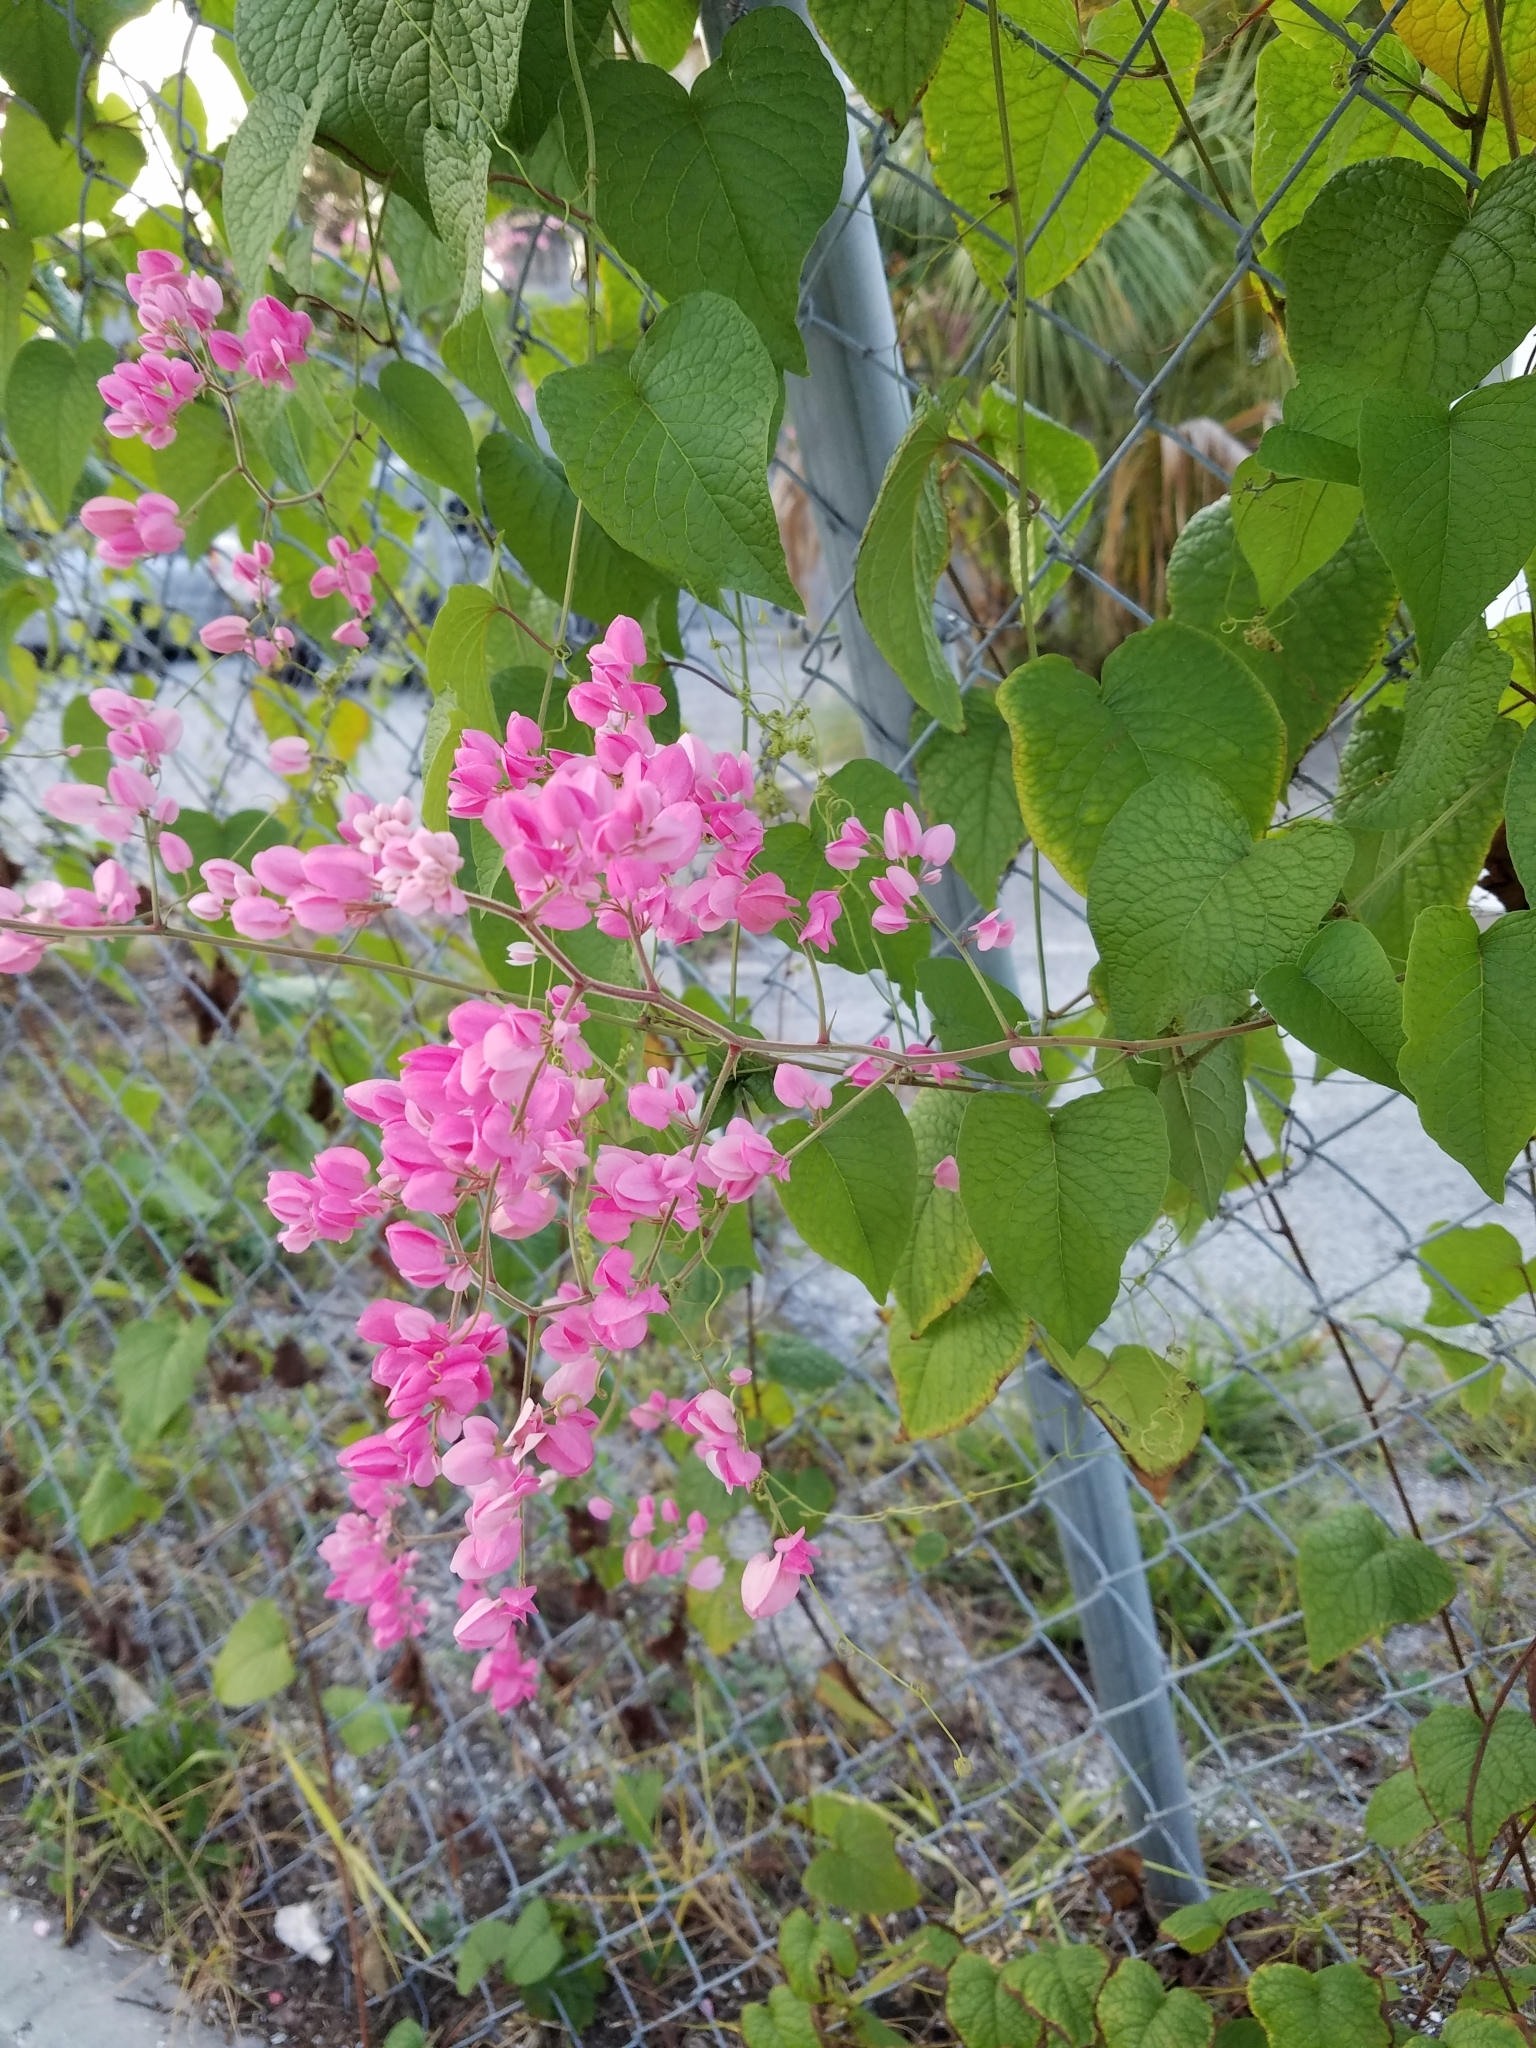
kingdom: Plantae
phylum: Tracheophyta
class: Magnoliopsida
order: Caryophyllales
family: Polygonaceae
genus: Antigonon
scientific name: Antigonon leptopus
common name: Coral vine
